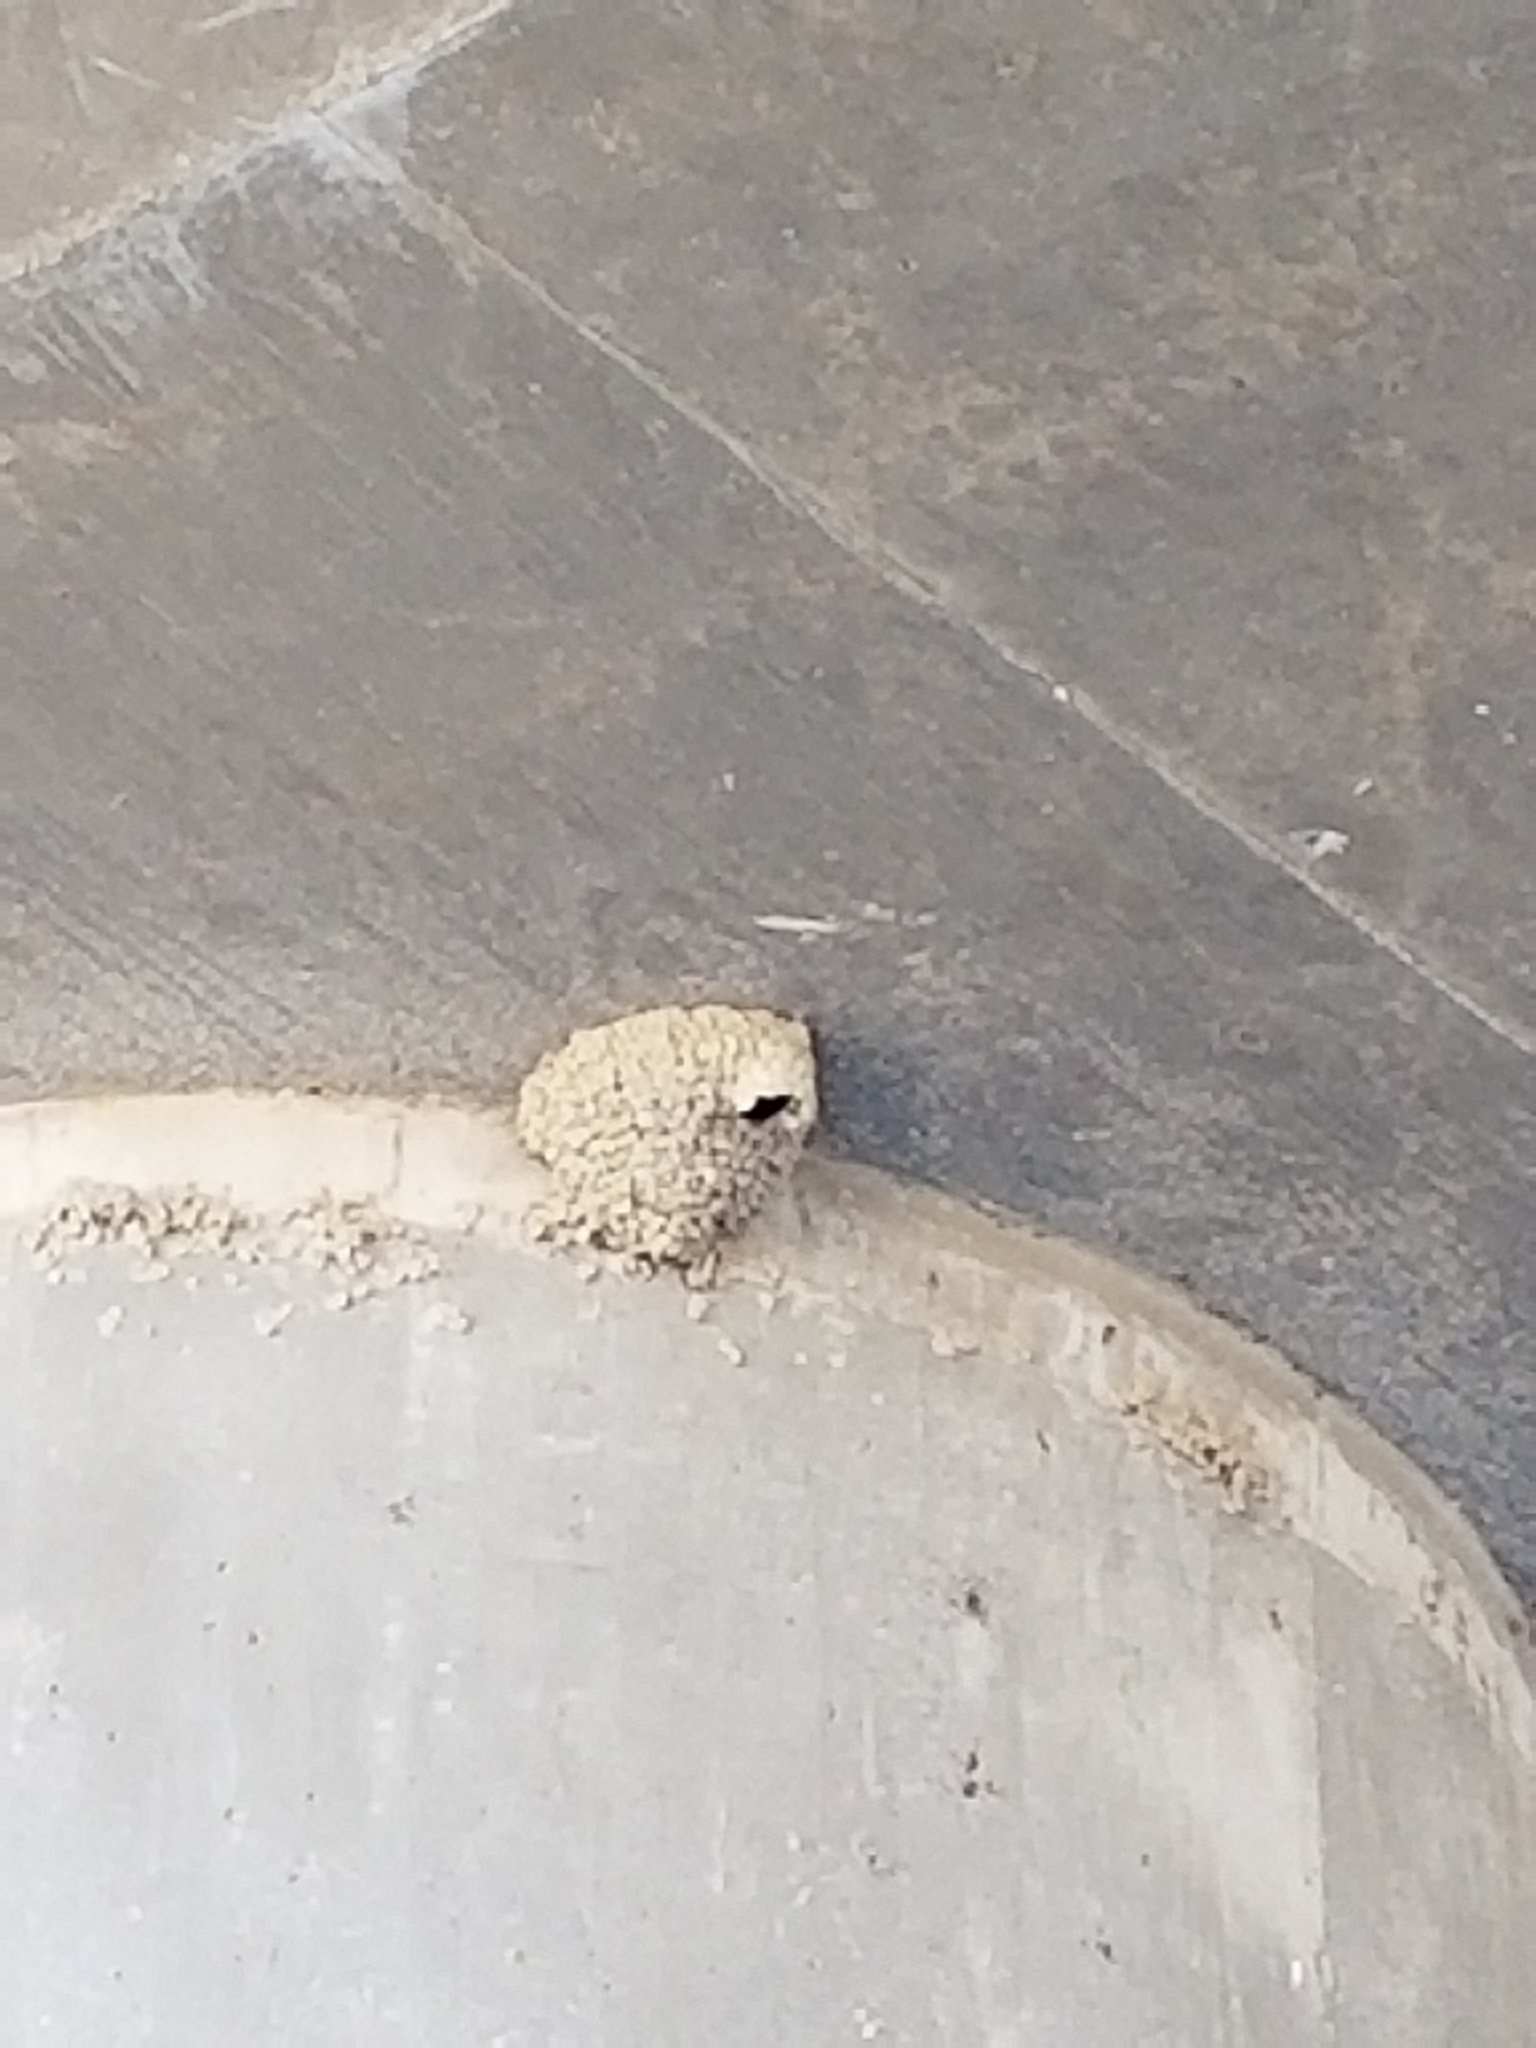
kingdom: Animalia
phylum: Chordata
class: Aves
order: Passeriformes
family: Hirundinidae
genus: Petrochelidon
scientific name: Petrochelidon pyrrhonota
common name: American cliff swallow
